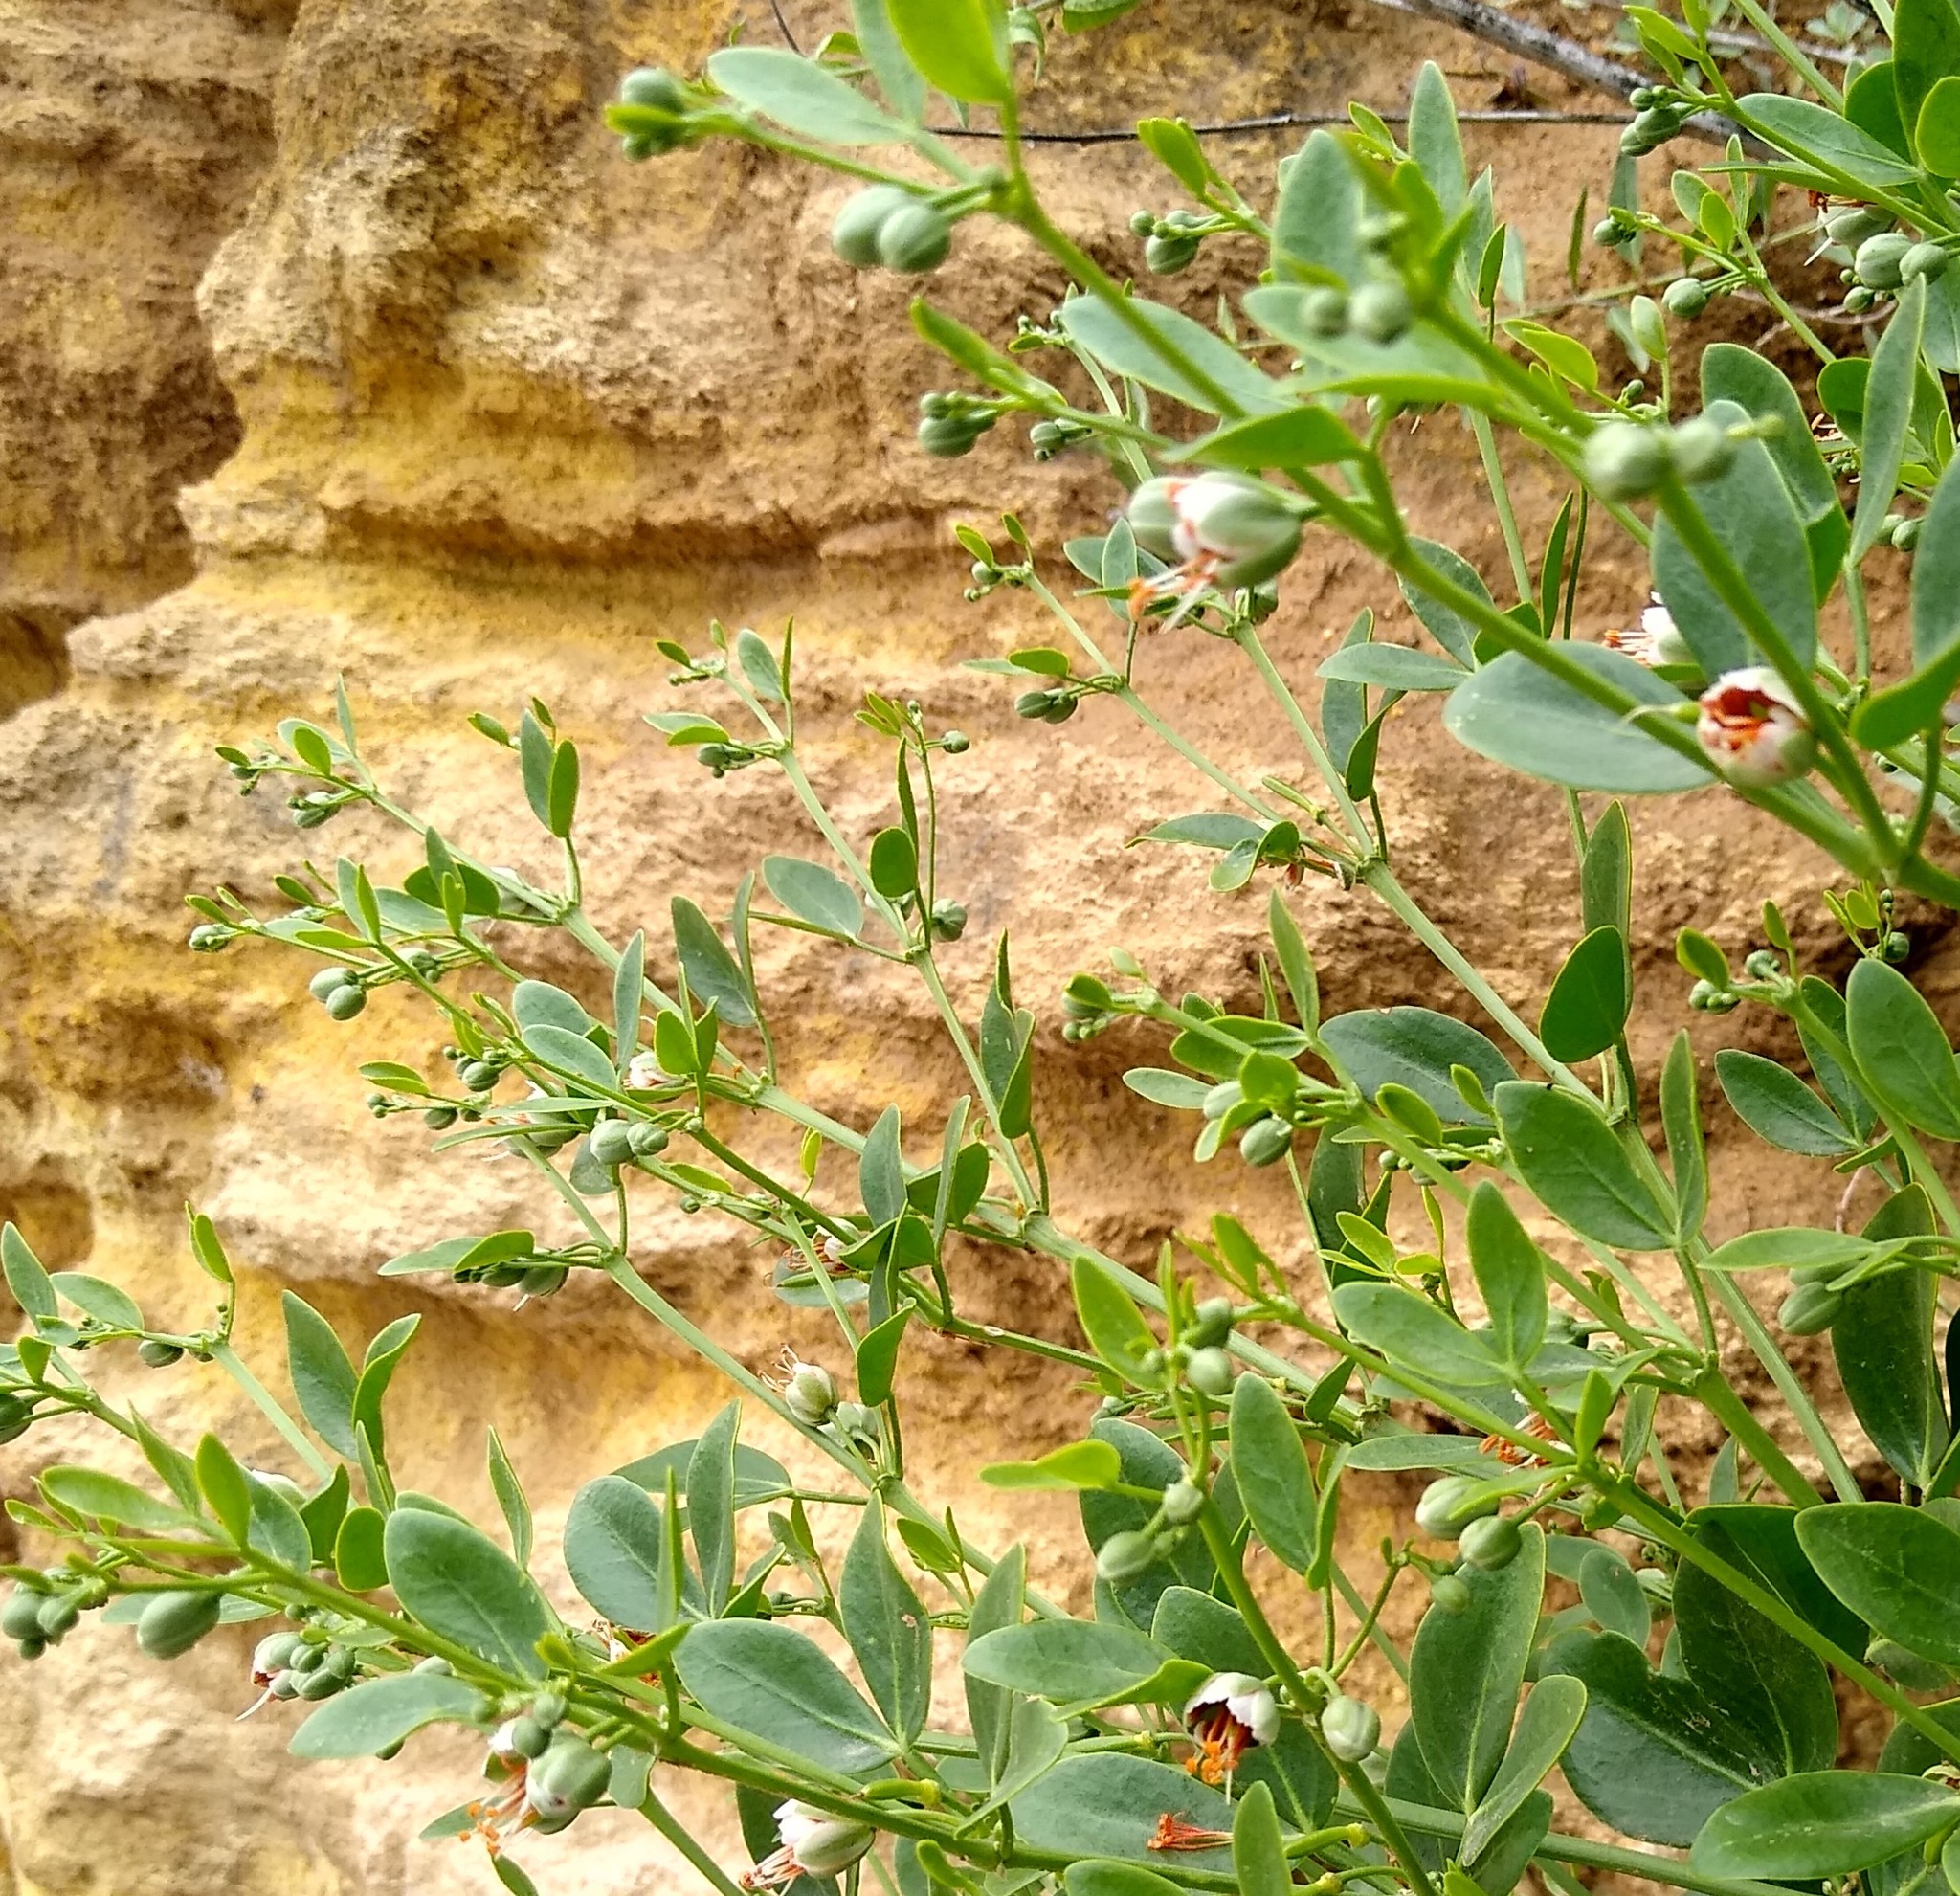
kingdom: Plantae
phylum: Tracheophyta
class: Magnoliopsida
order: Zygophyllales
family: Zygophyllaceae
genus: Zygophyllum
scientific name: Zygophyllum fabago
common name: Syrian beancaper
